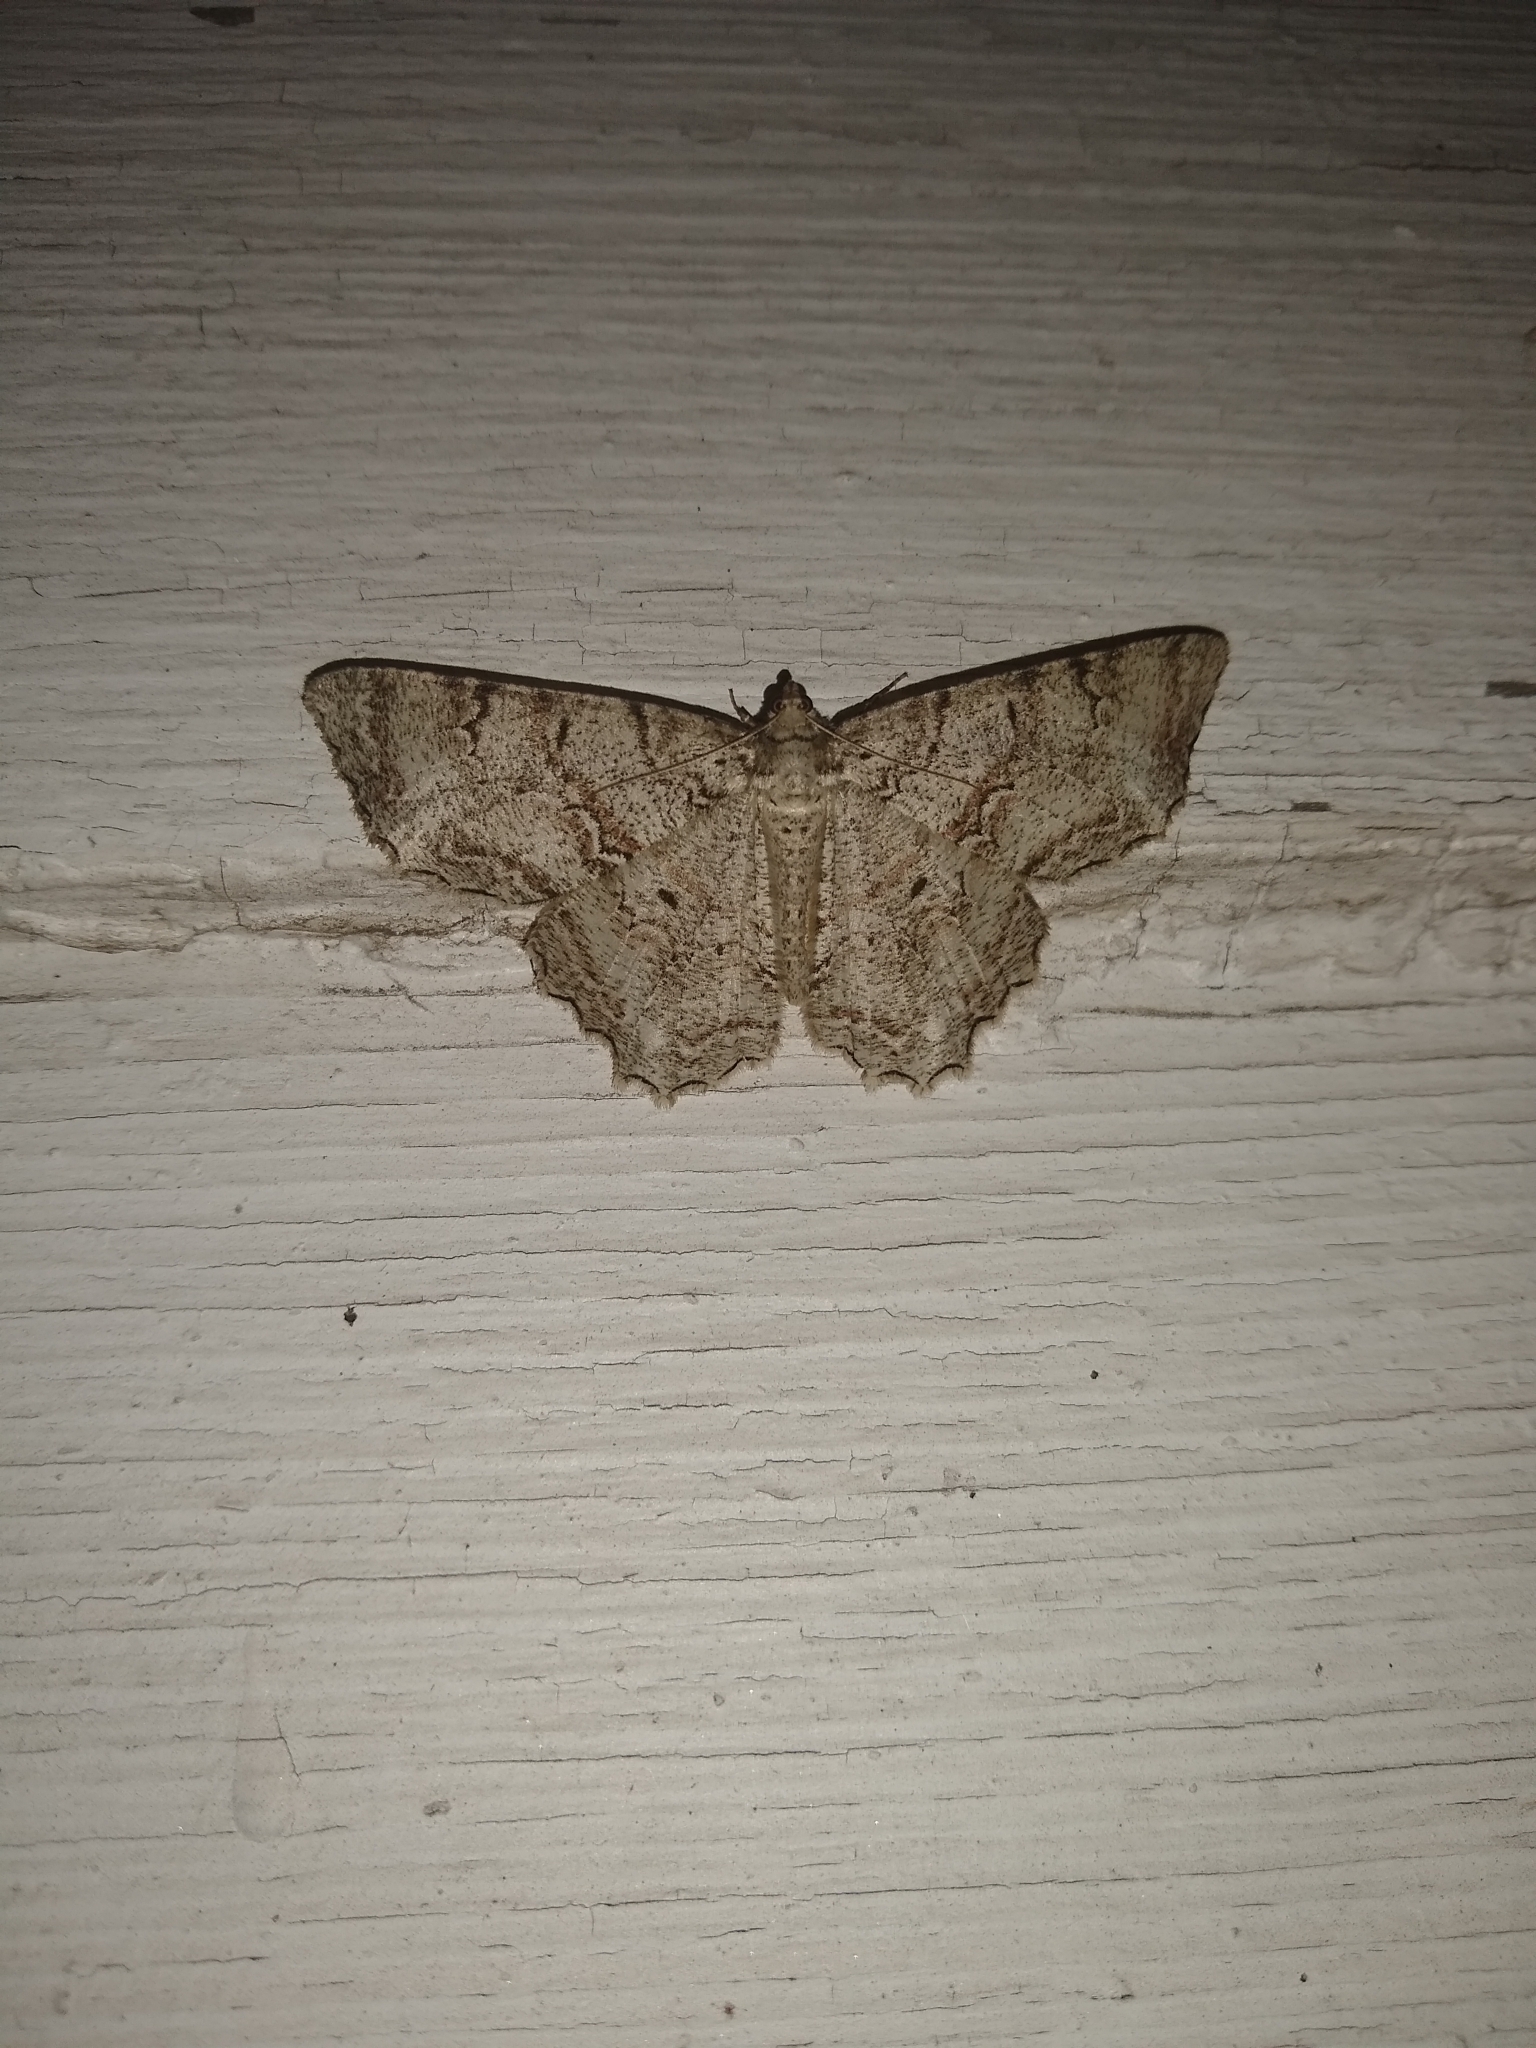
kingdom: Animalia
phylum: Arthropoda
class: Insecta
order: Lepidoptera
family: Geometridae
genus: Epimecis
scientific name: Epimecis hortaria
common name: Tulip-tree beauty
